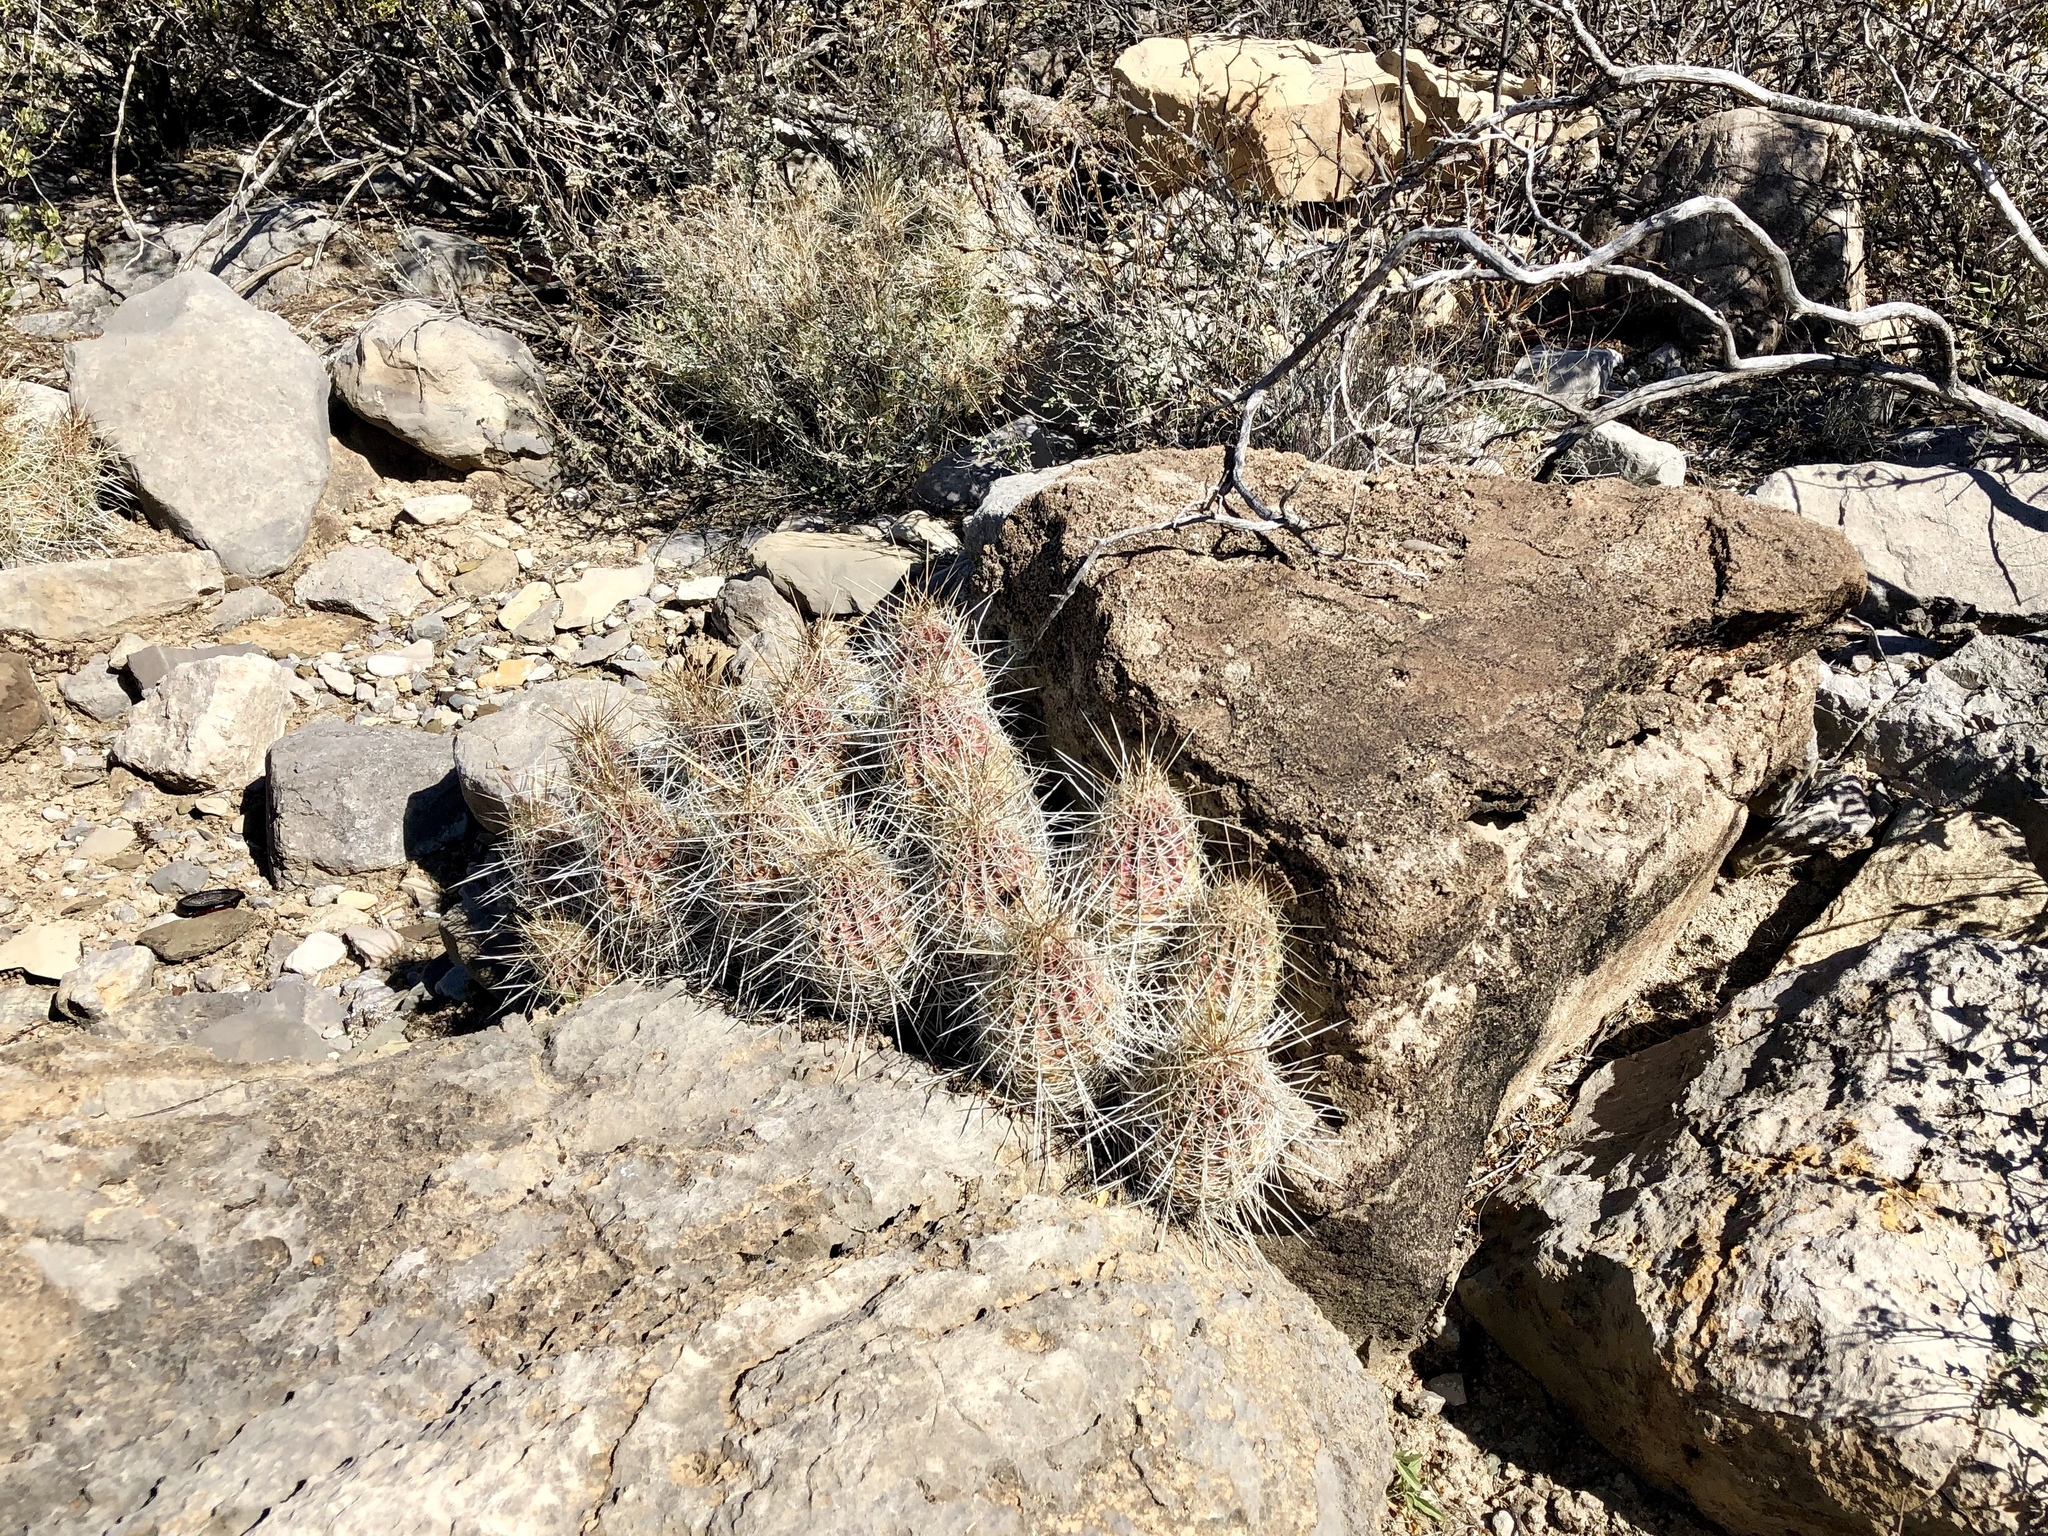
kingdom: Plantae
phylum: Tracheophyta
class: Magnoliopsida
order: Caryophyllales
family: Cactaceae
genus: Echinocereus
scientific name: Echinocereus stramineus
